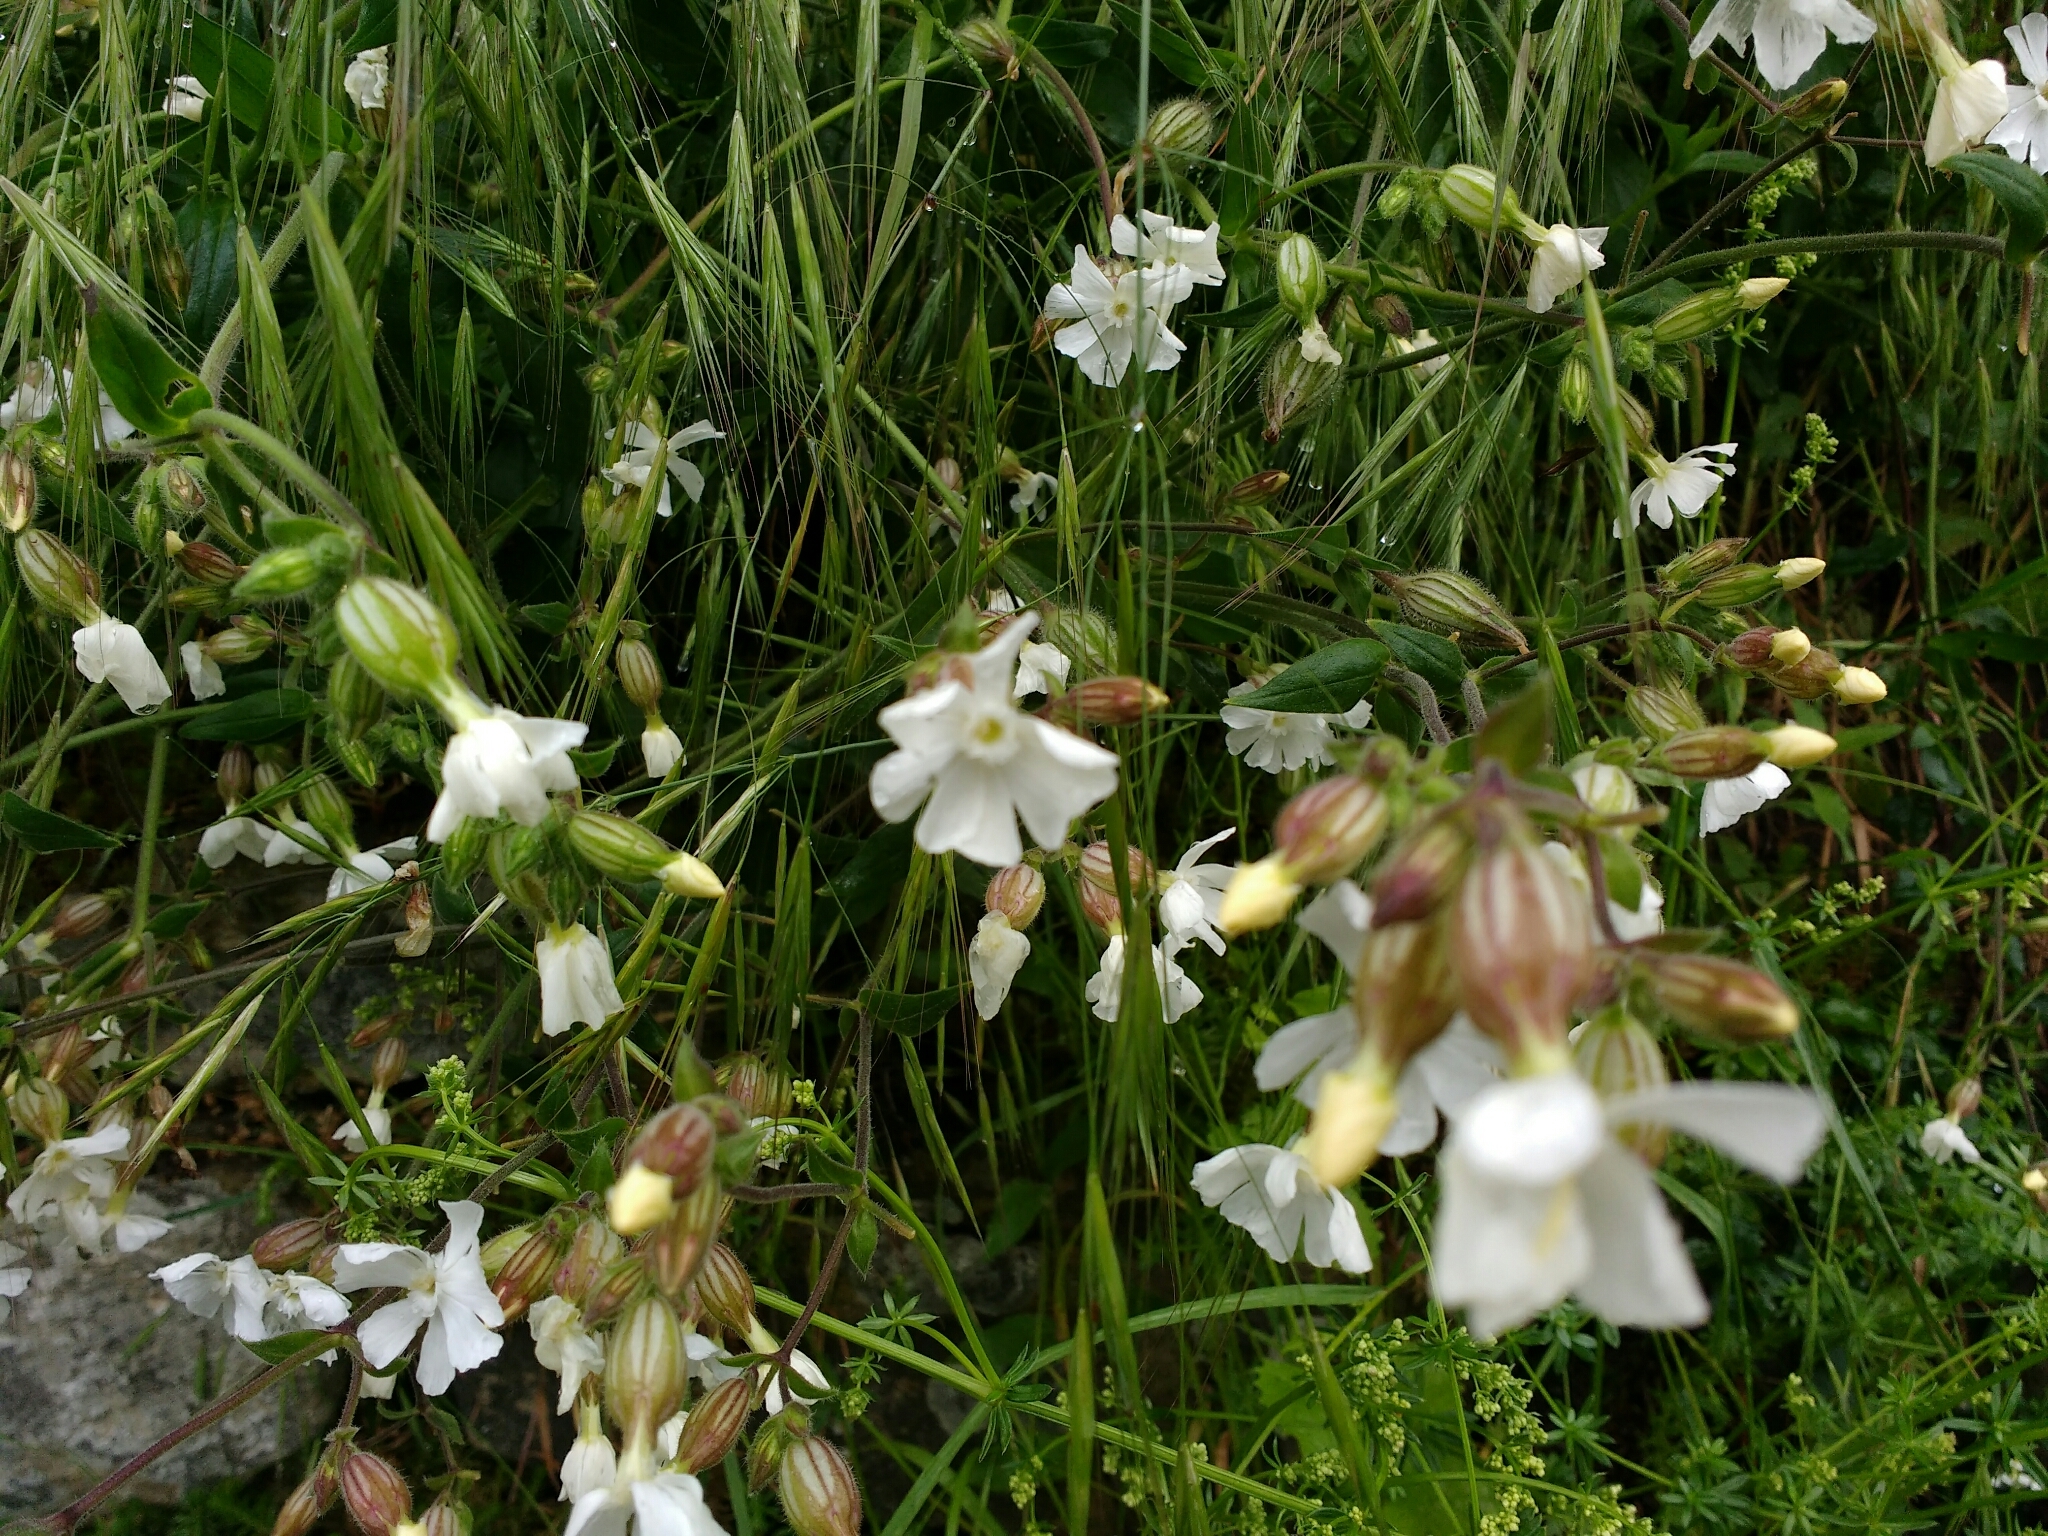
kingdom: Plantae
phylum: Tracheophyta
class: Magnoliopsida
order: Caryophyllales
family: Caryophyllaceae
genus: Silene
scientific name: Silene latifolia
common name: White campion
